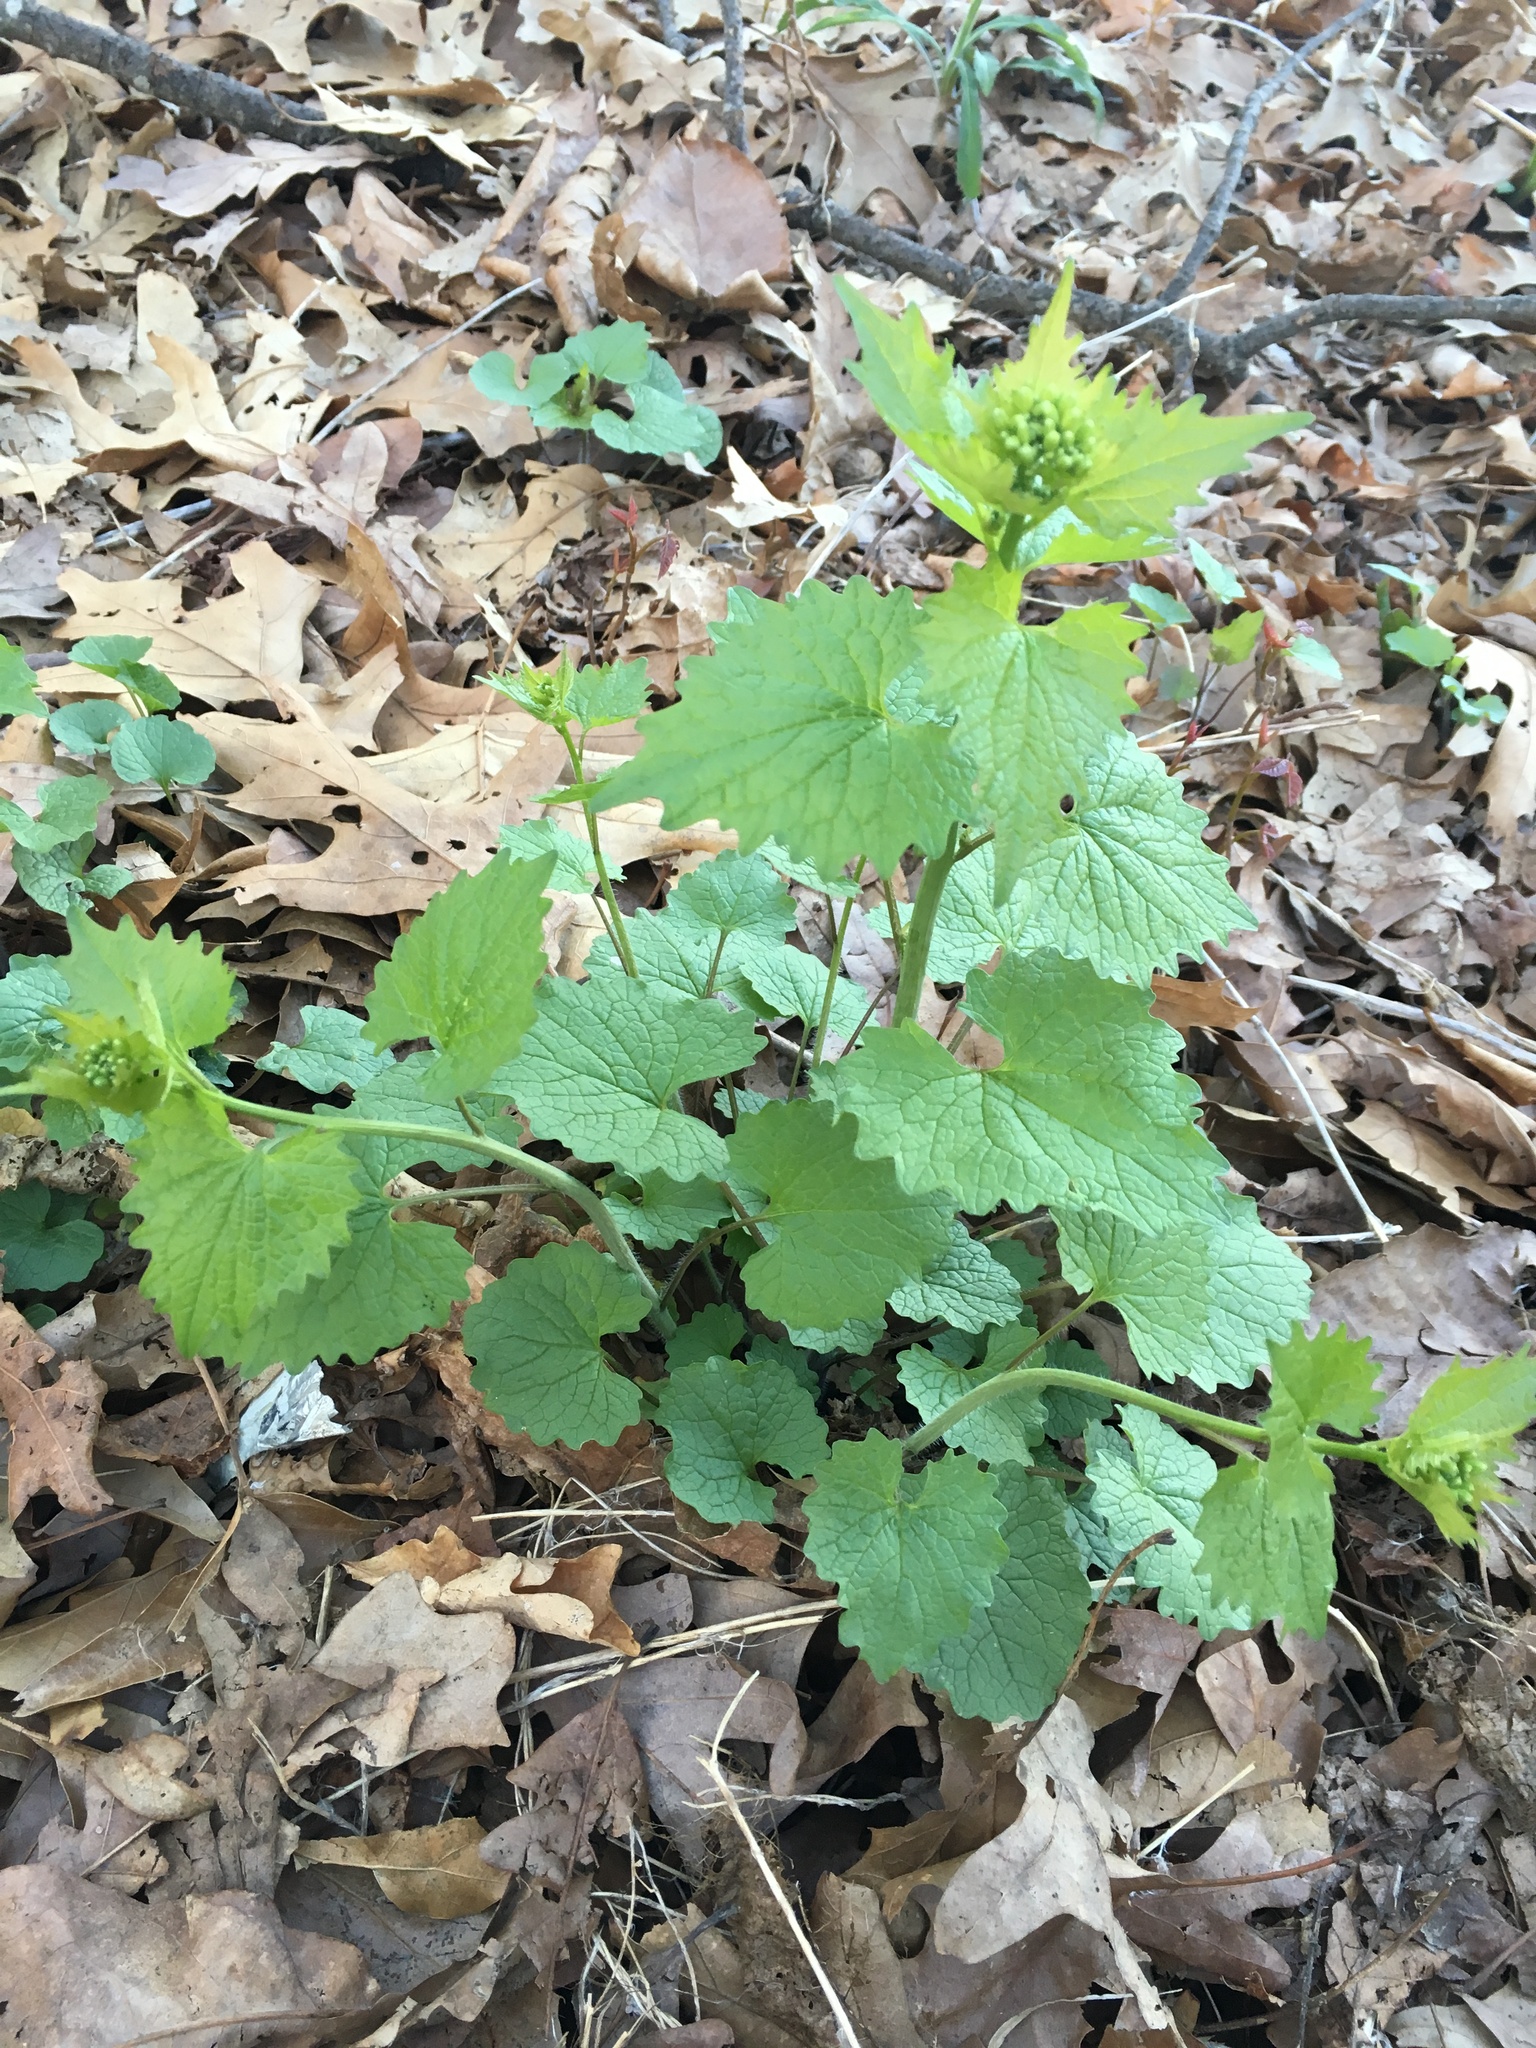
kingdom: Plantae
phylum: Tracheophyta
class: Magnoliopsida
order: Brassicales
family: Brassicaceae
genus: Alliaria
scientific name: Alliaria petiolata
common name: Garlic mustard
